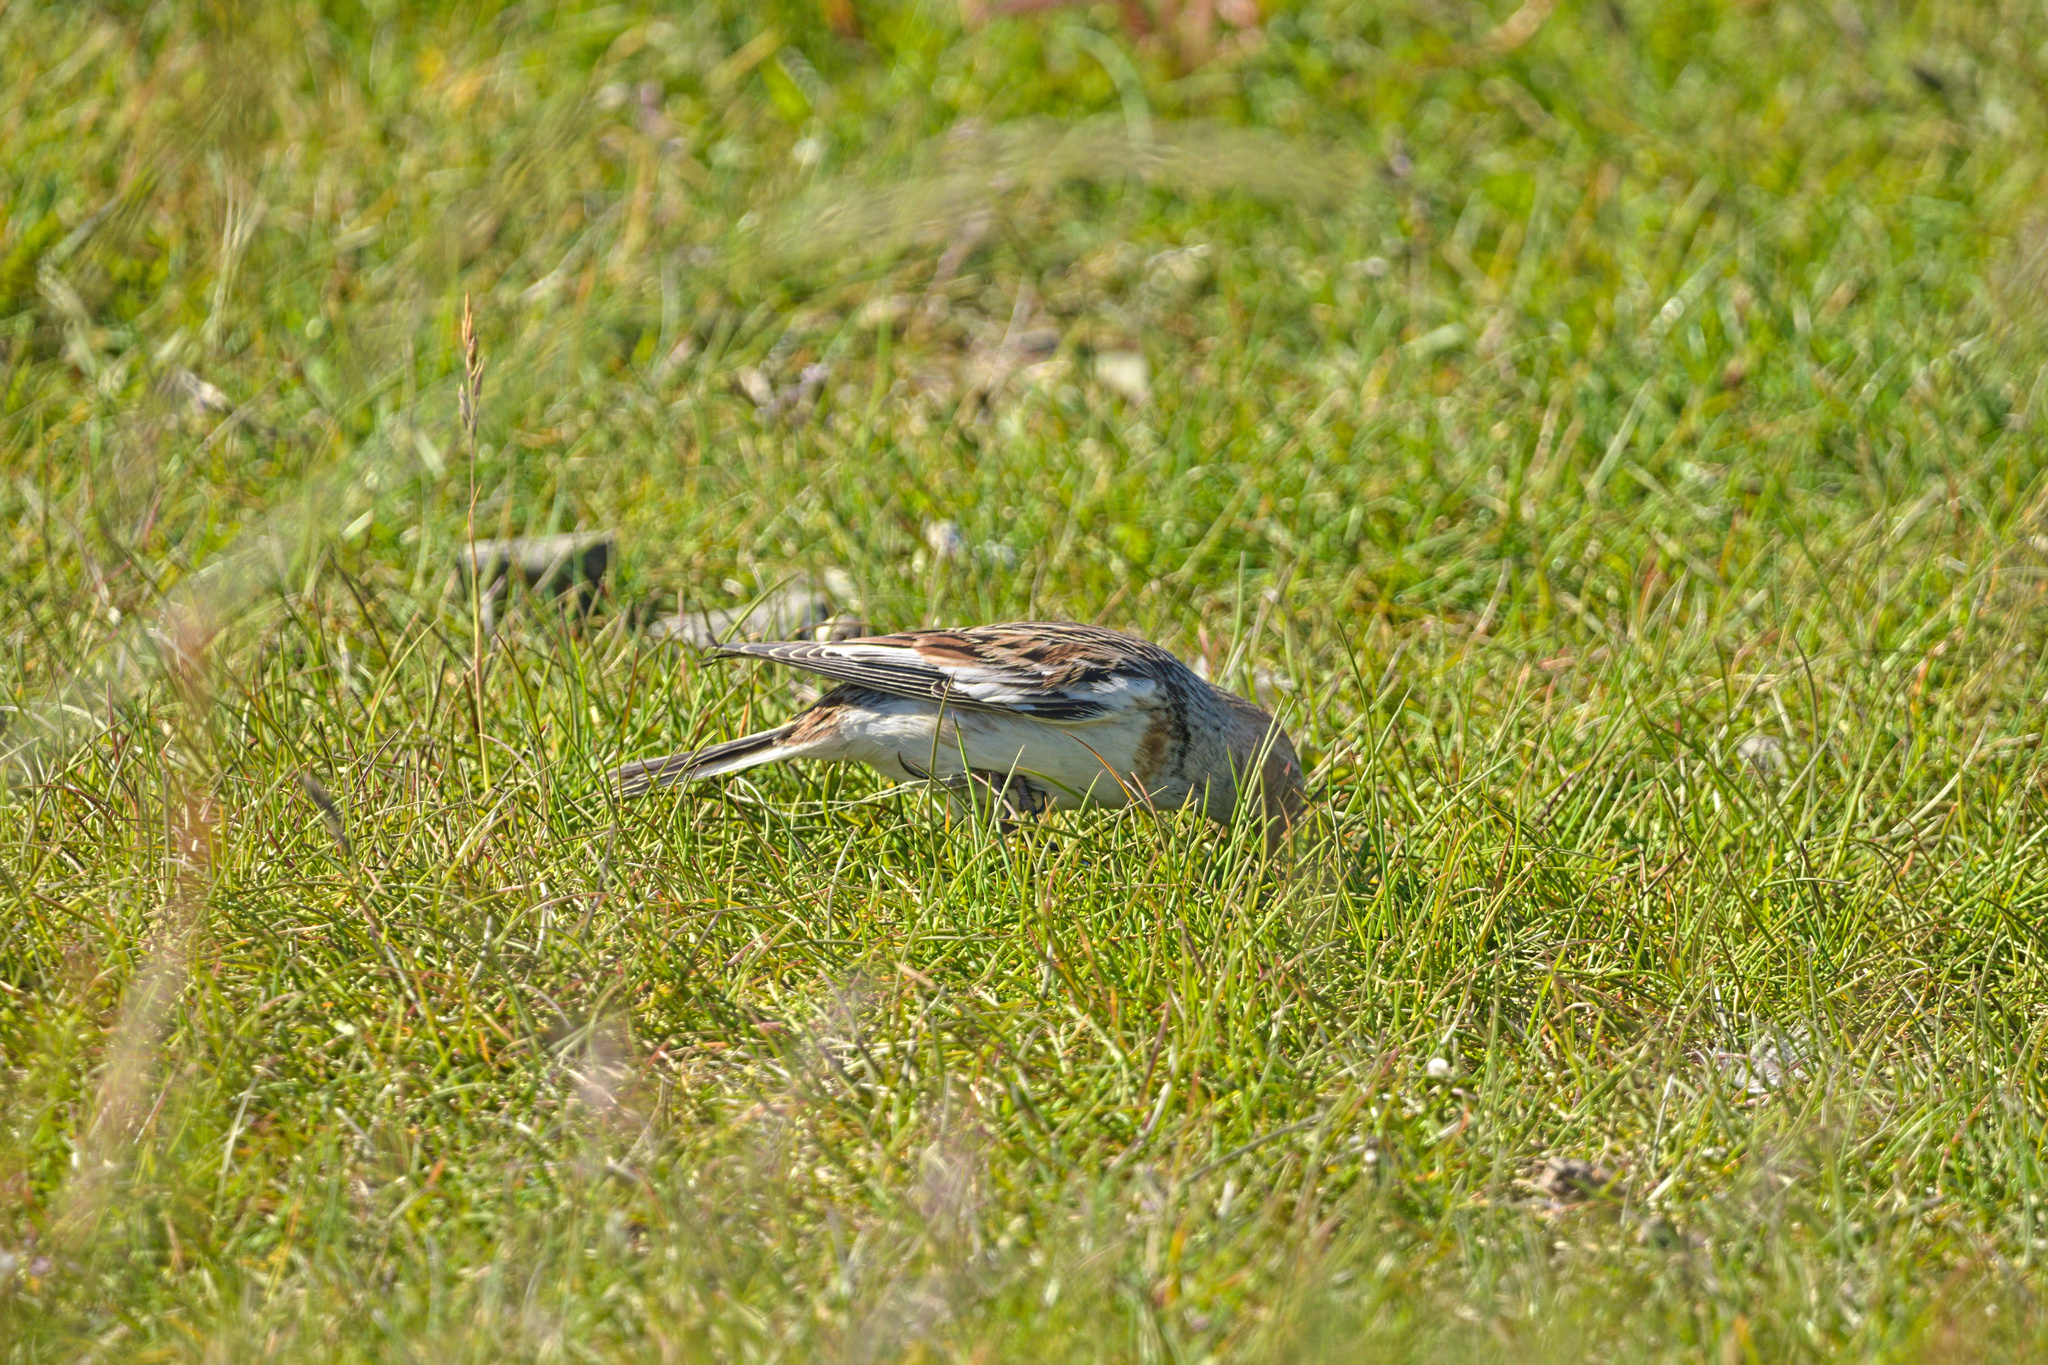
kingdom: Animalia
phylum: Chordata
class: Aves
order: Passeriformes
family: Calcariidae
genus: Plectrophenax
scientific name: Plectrophenax nivalis
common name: Snow bunting
